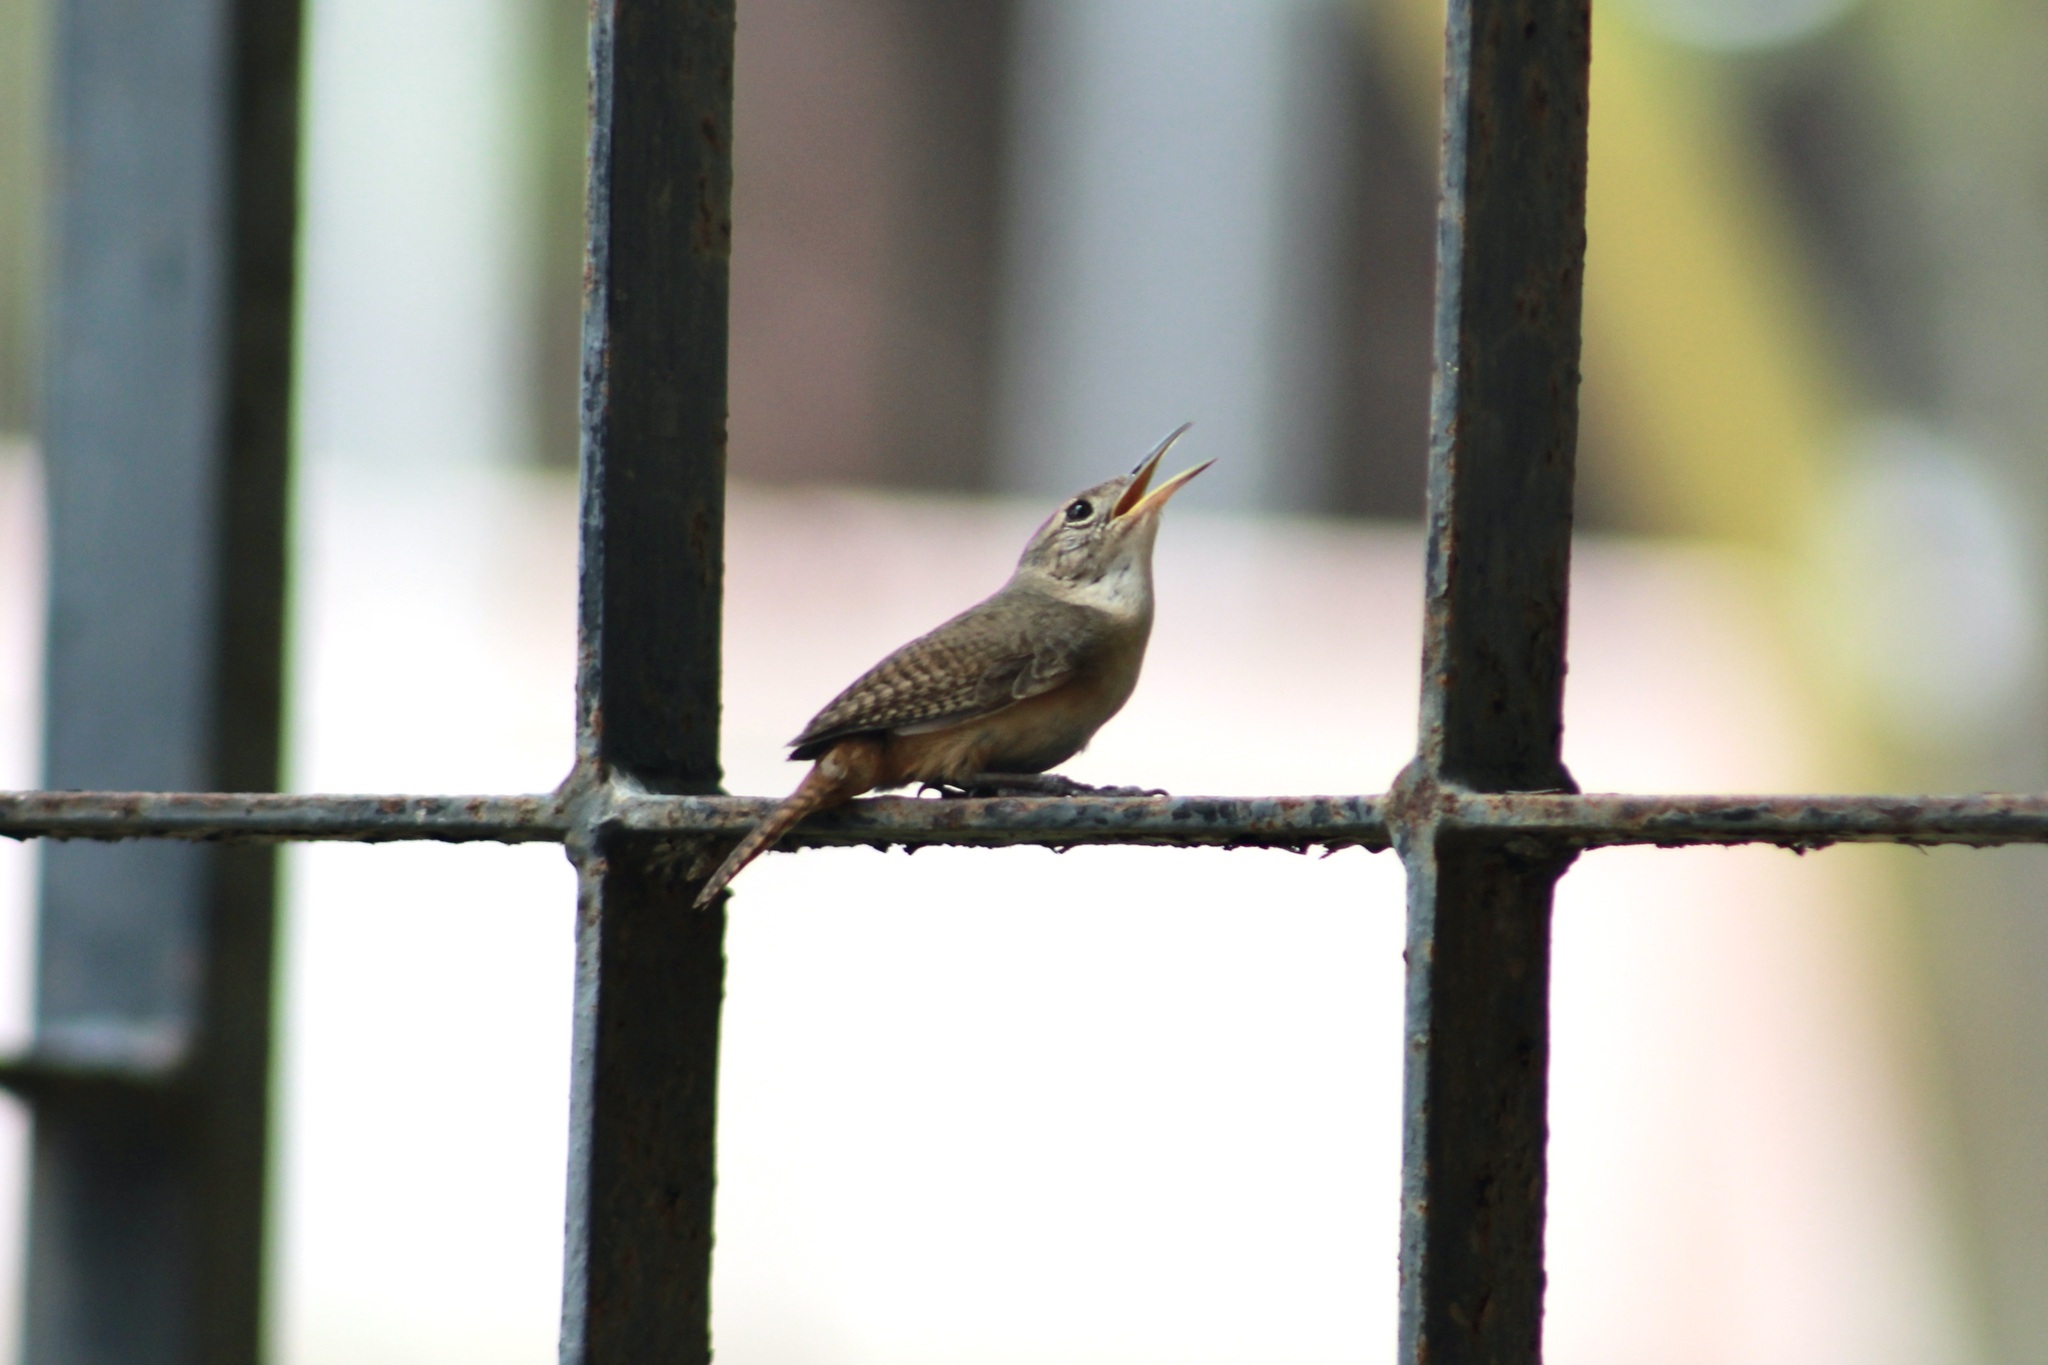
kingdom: Animalia
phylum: Chordata
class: Aves
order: Passeriformes
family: Troglodytidae
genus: Troglodytes
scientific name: Troglodytes aedon
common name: House wren
